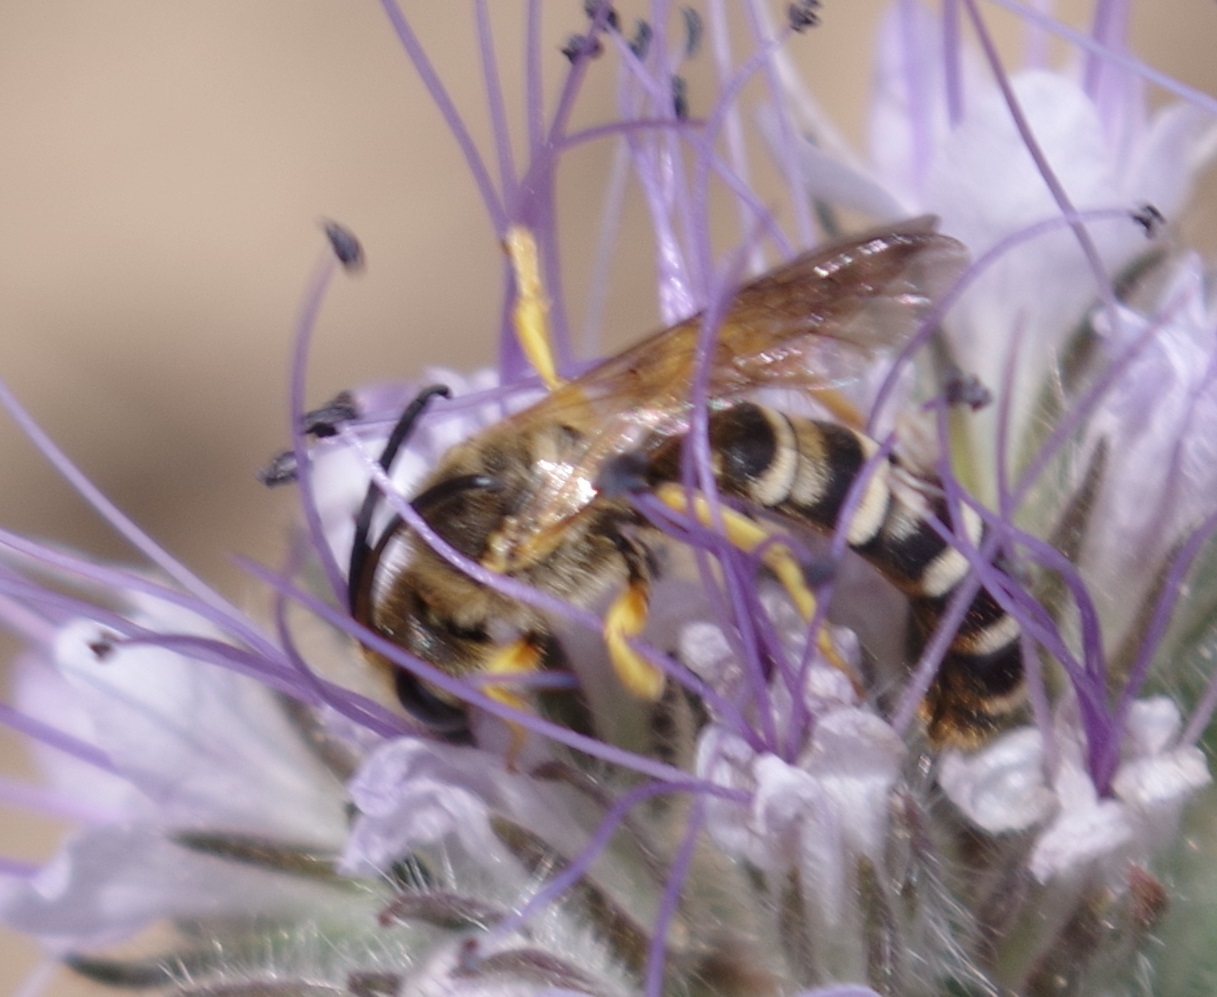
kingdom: Animalia
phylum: Arthropoda
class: Insecta
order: Hymenoptera
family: Halictidae
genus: Halictus
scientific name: Halictus scabiosae
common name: Great banded furrow bee
